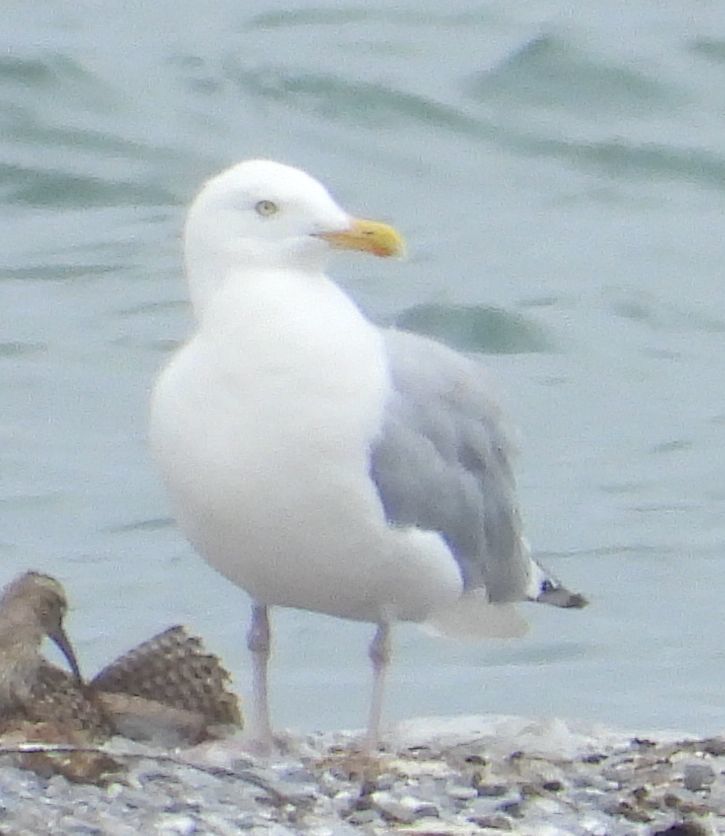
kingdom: Animalia
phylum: Chordata
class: Aves
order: Charadriiformes
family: Laridae
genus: Larus
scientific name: Larus argentatus
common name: Herring gull
